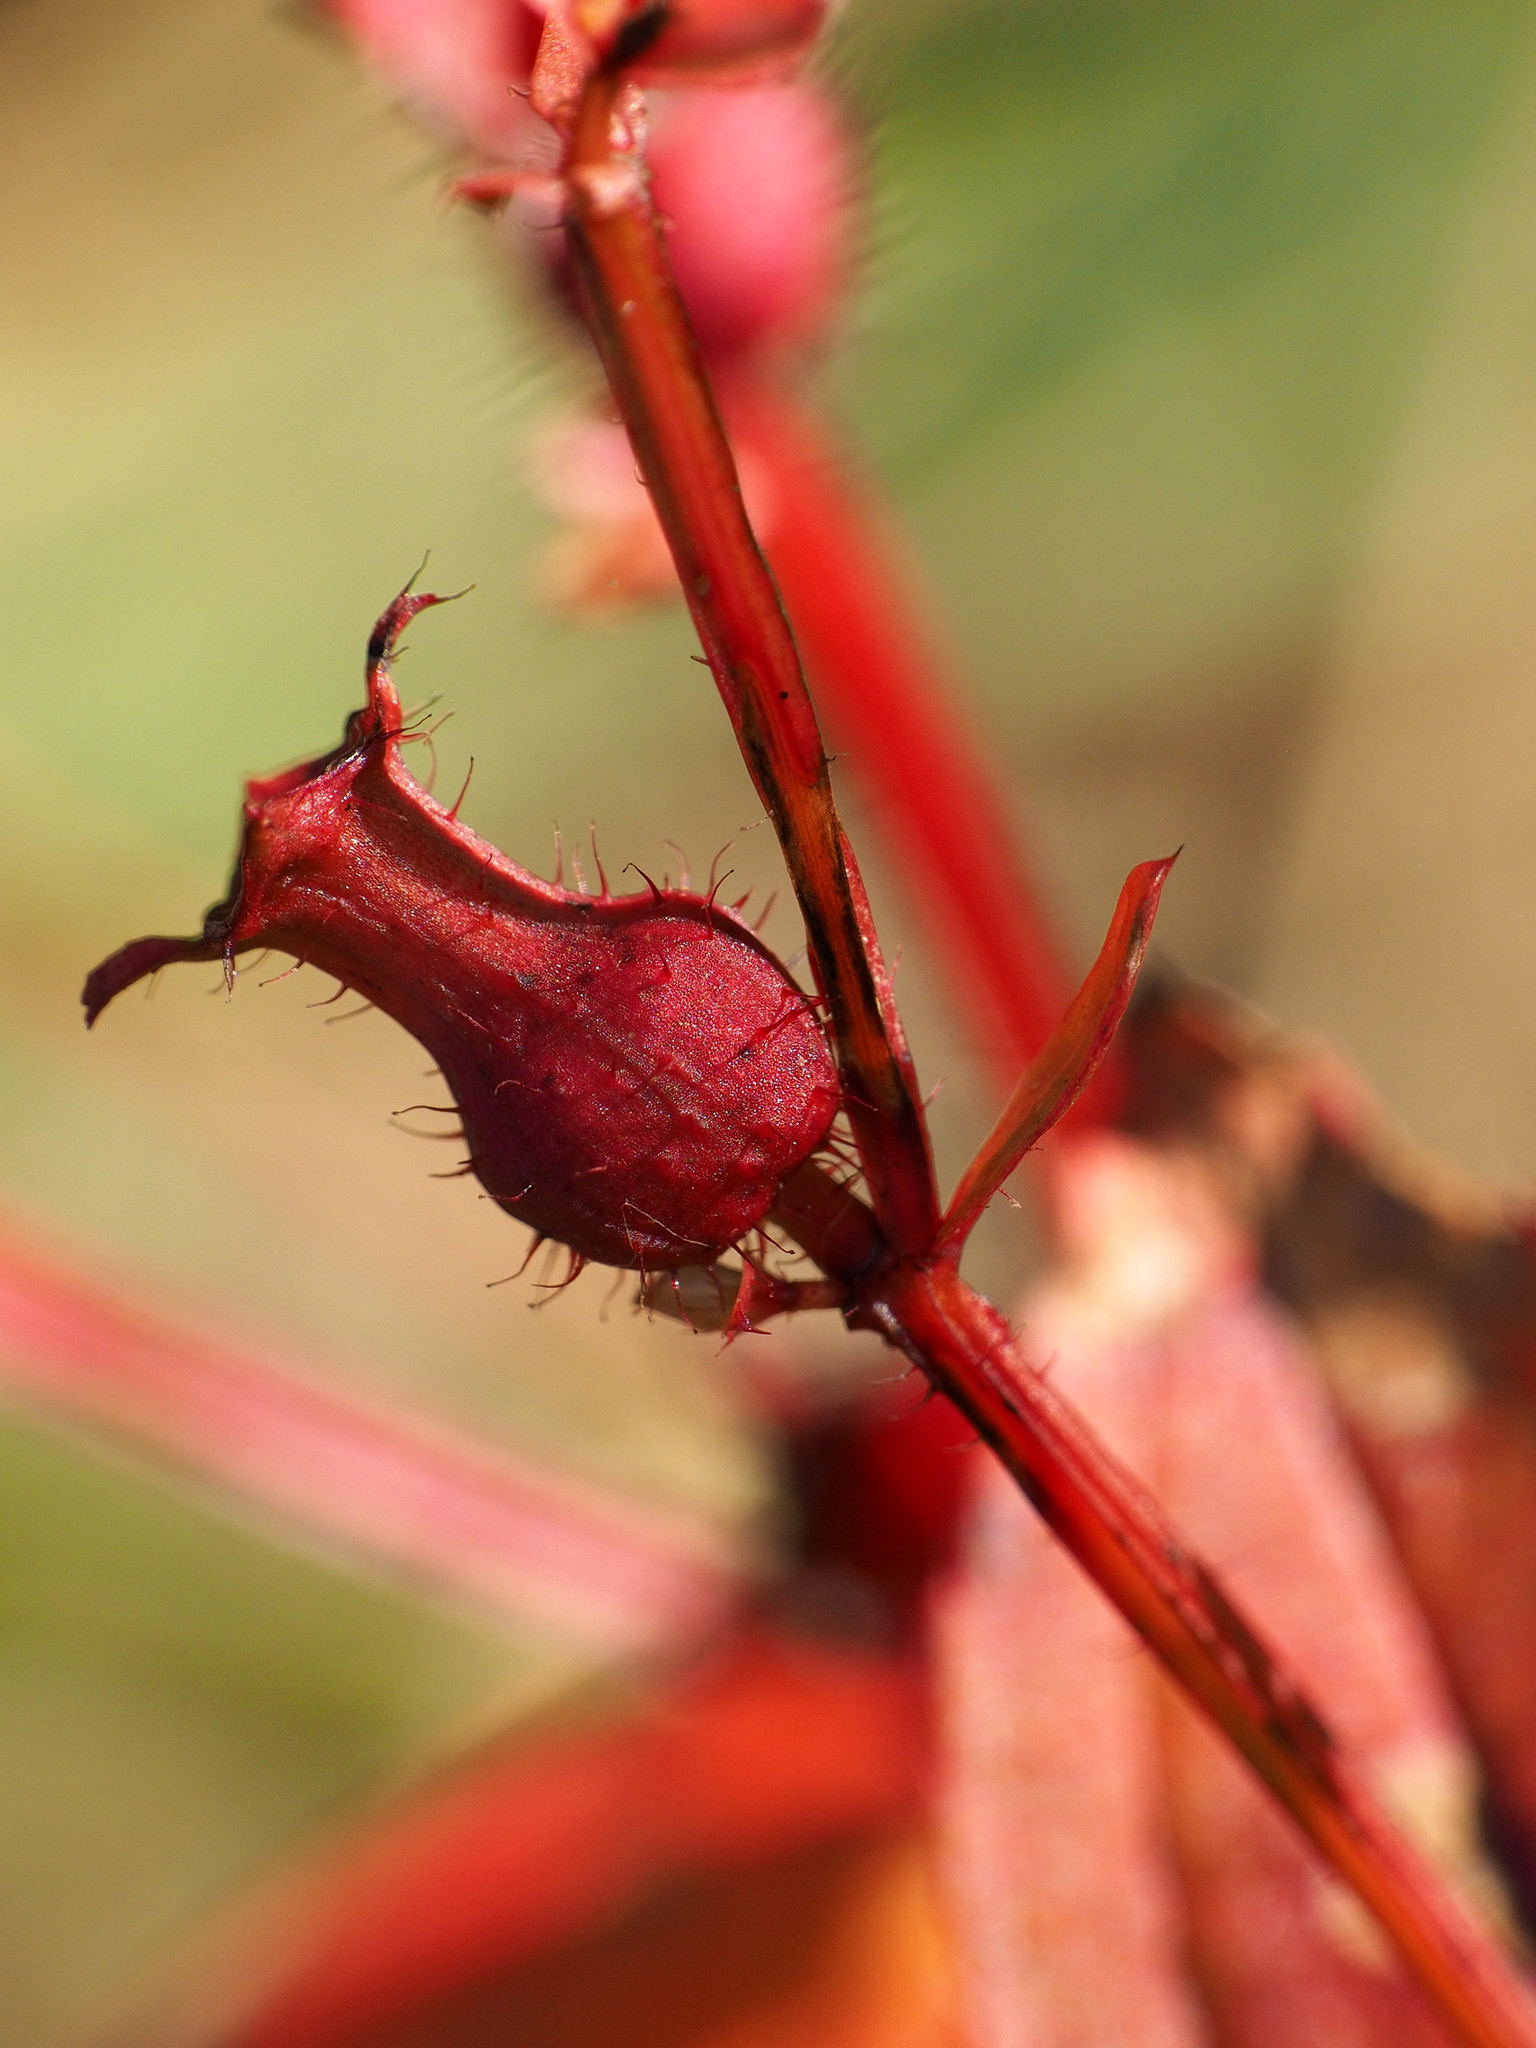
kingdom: Plantae
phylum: Tracheophyta
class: Magnoliopsida
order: Myrtales
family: Melastomataceae
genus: Rhexia
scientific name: Rhexia virginica
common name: Common meadow beauty
